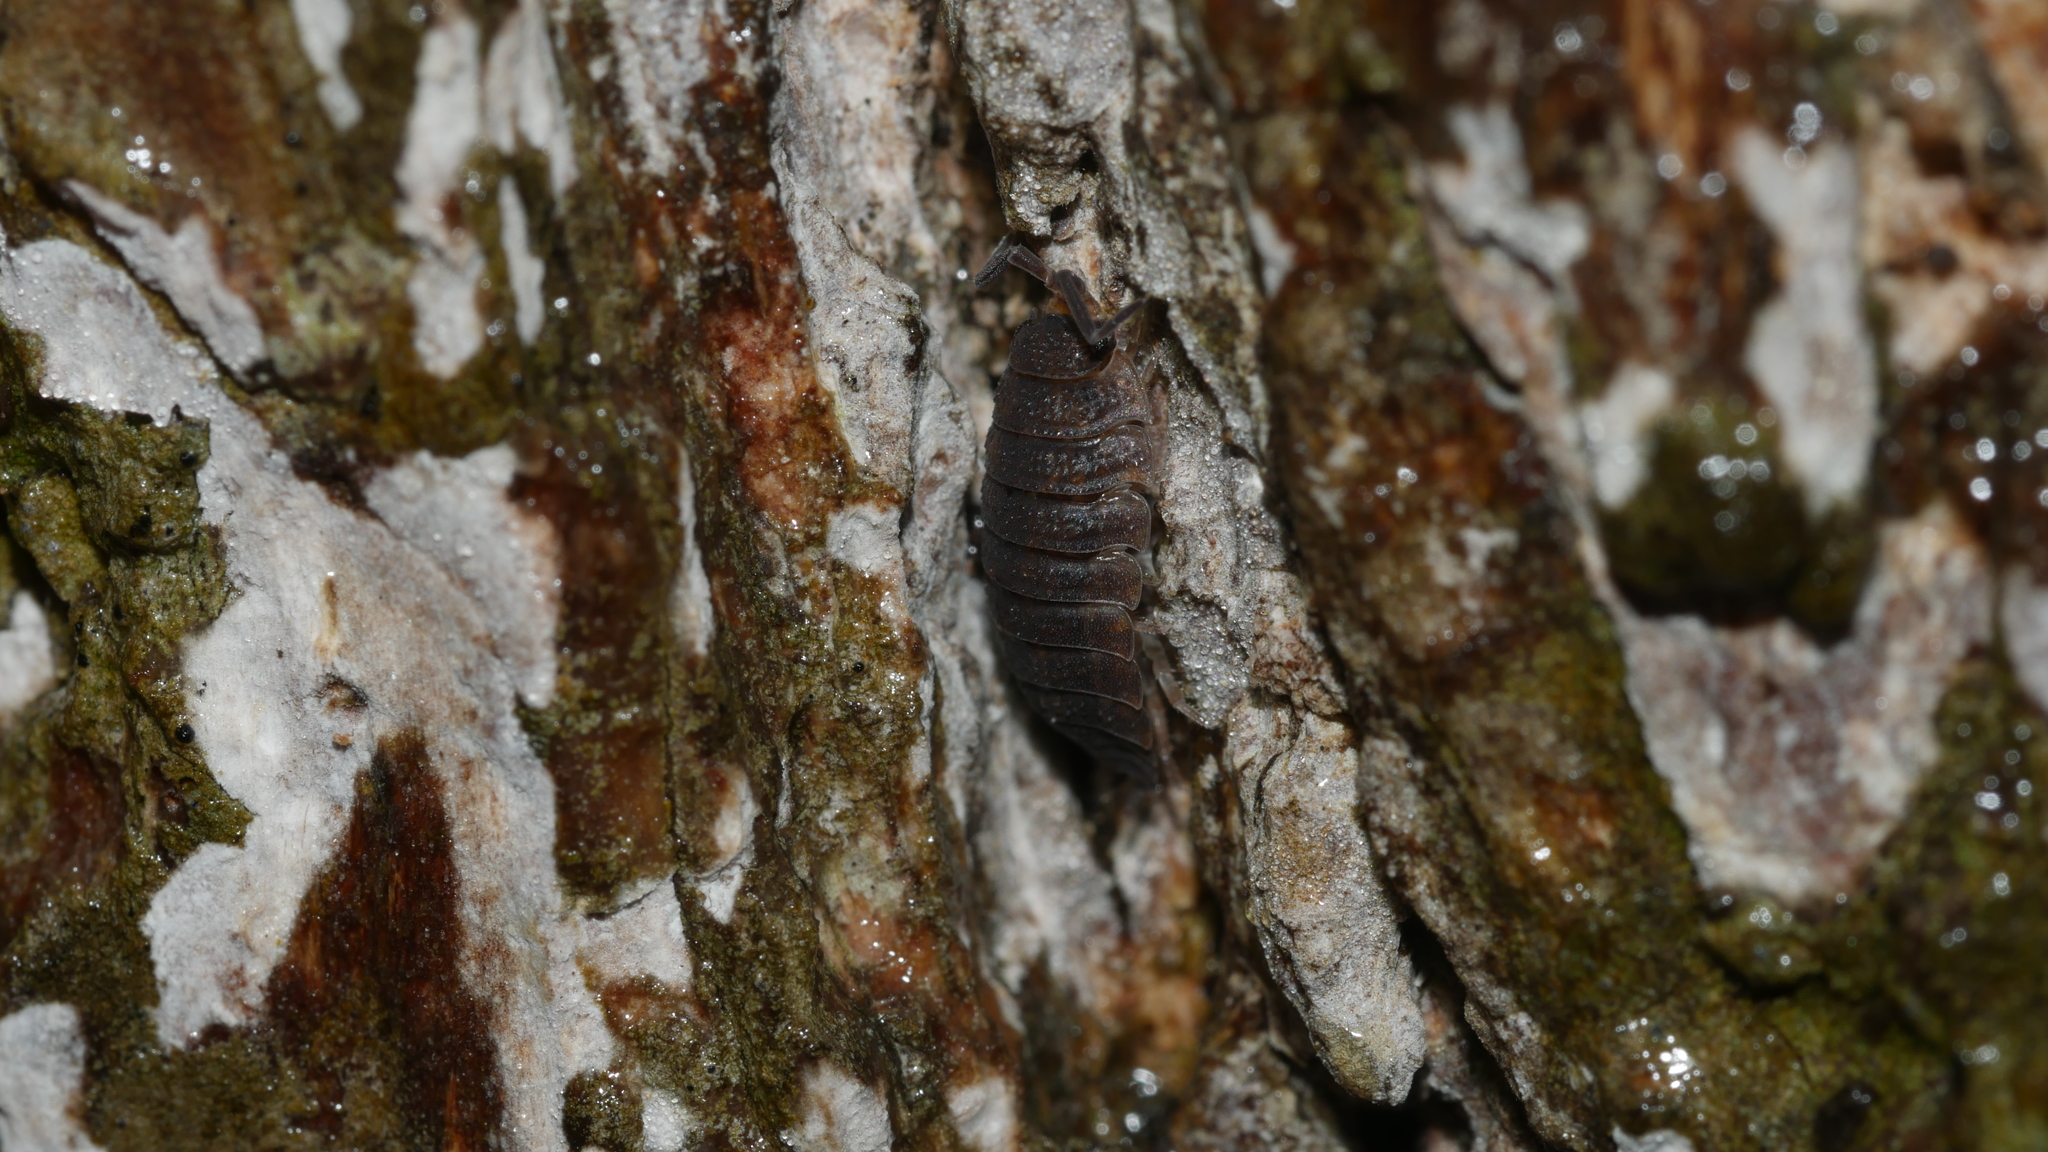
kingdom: Animalia
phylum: Arthropoda
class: Malacostraca
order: Isopoda
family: Porcellionidae
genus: Porcellio
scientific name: Porcellio scaber
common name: Common rough woodlouse
